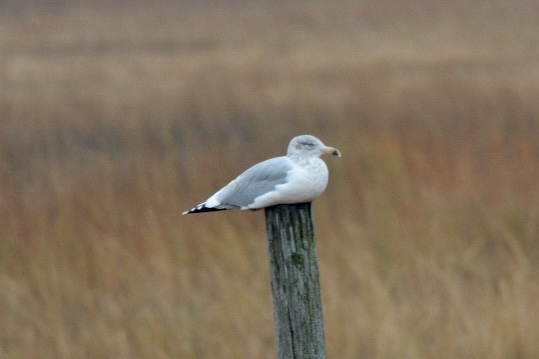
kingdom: Animalia
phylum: Chordata
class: Aves
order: Charadriiformes
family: Laridae
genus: Larus
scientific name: Larus argentatus
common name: Herring gull
